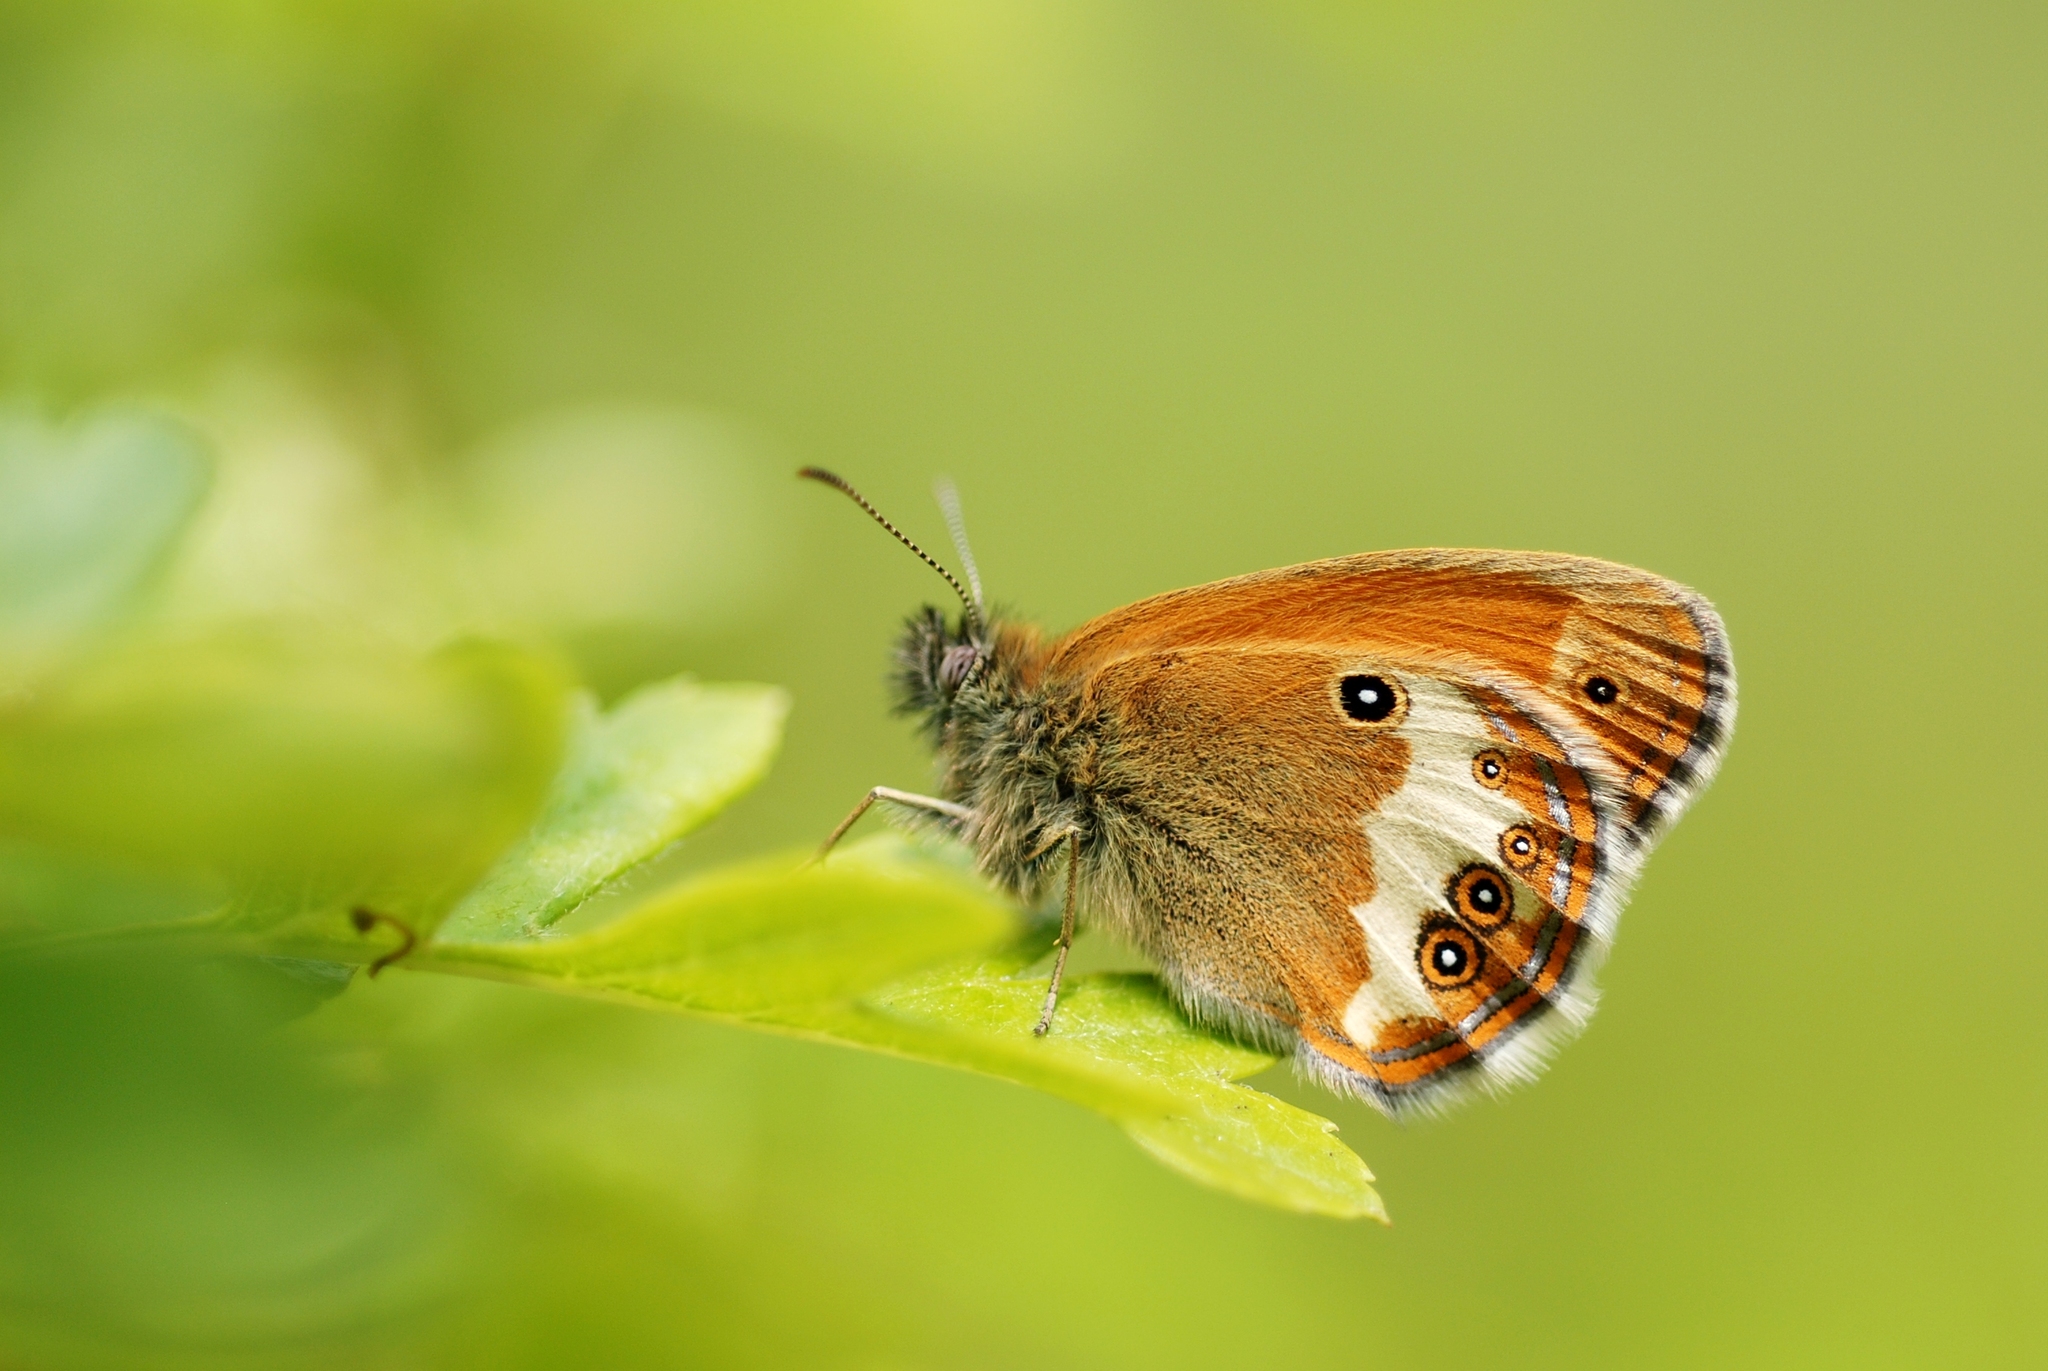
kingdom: Animalia
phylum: Arthropoda
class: Insecta
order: Lepidoptera
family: Nymphalidae
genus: Coenonympha
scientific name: Coenonympha arcania
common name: Pearly heath
